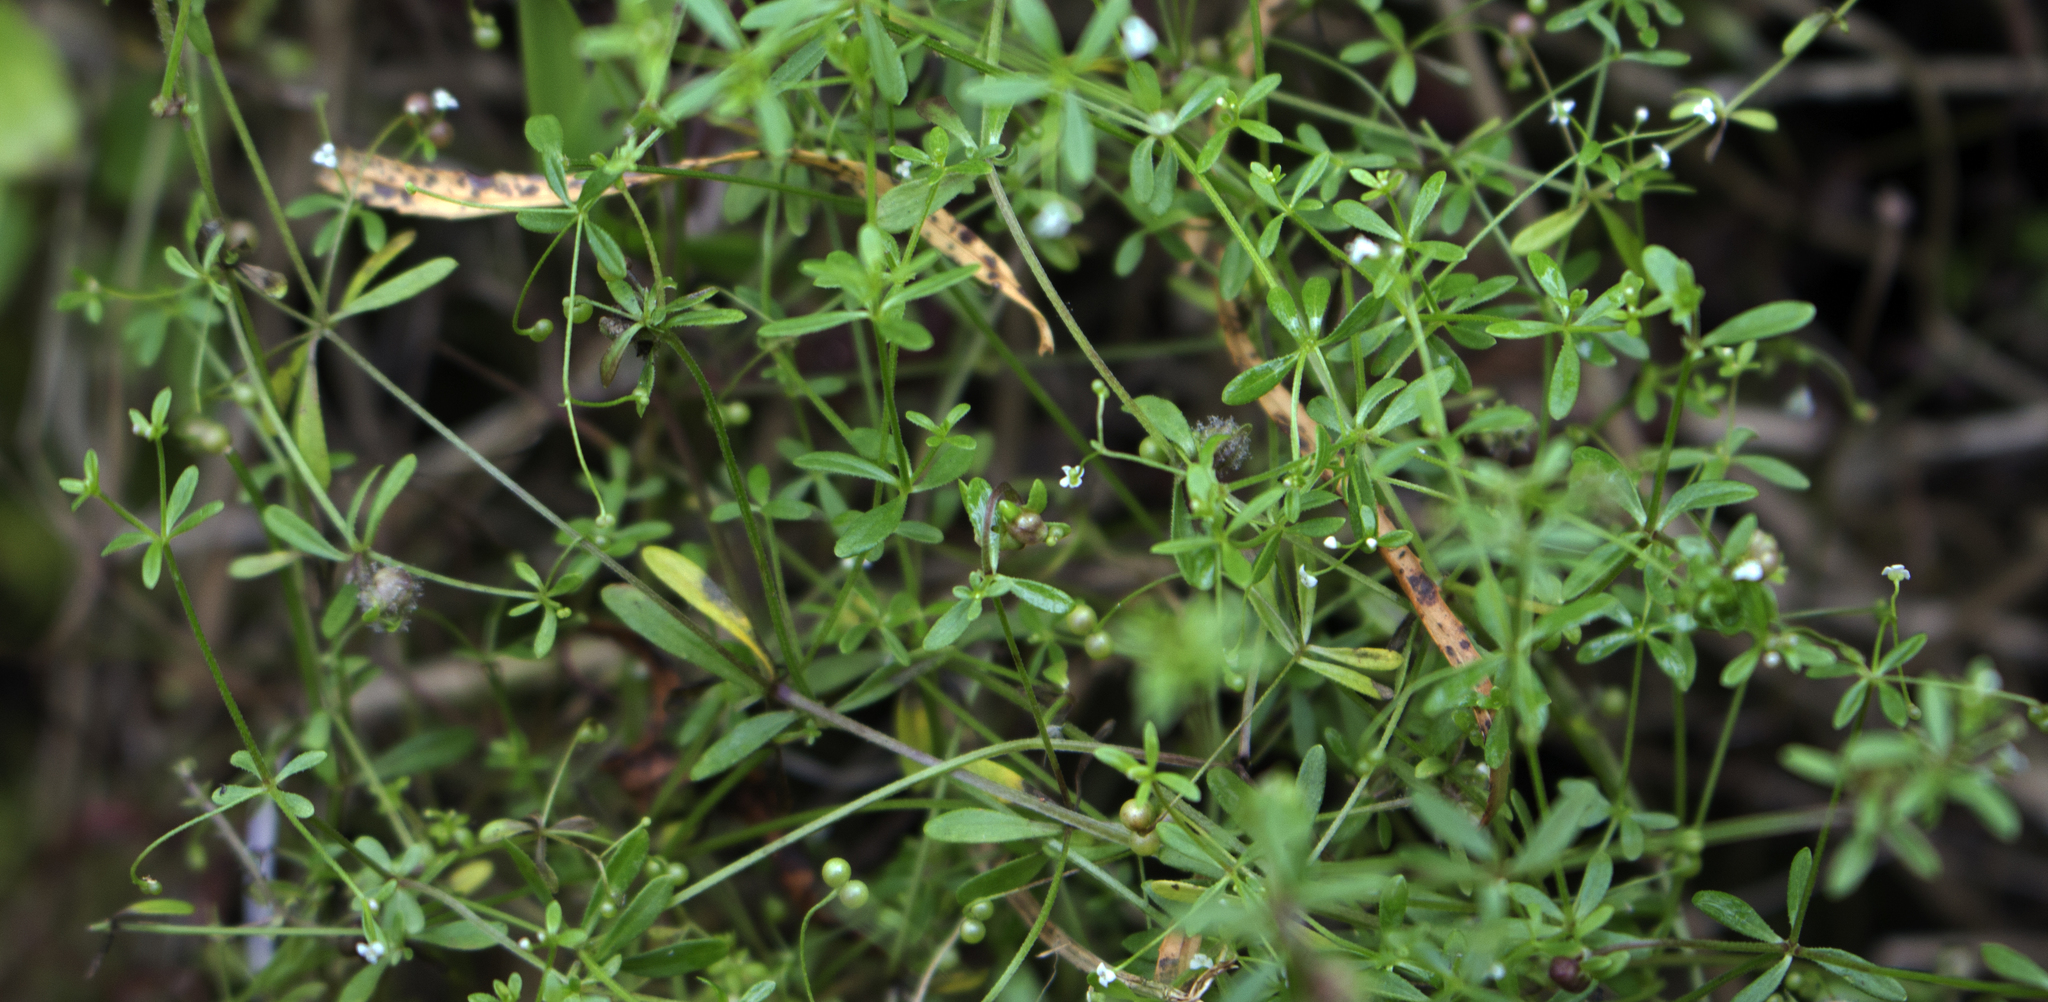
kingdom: Plantae
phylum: Tracheophyta
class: Magnoliopsida
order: Gentianales
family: Rubiaceae
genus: Galium
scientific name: Galium trifidum
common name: Small bedstraw
